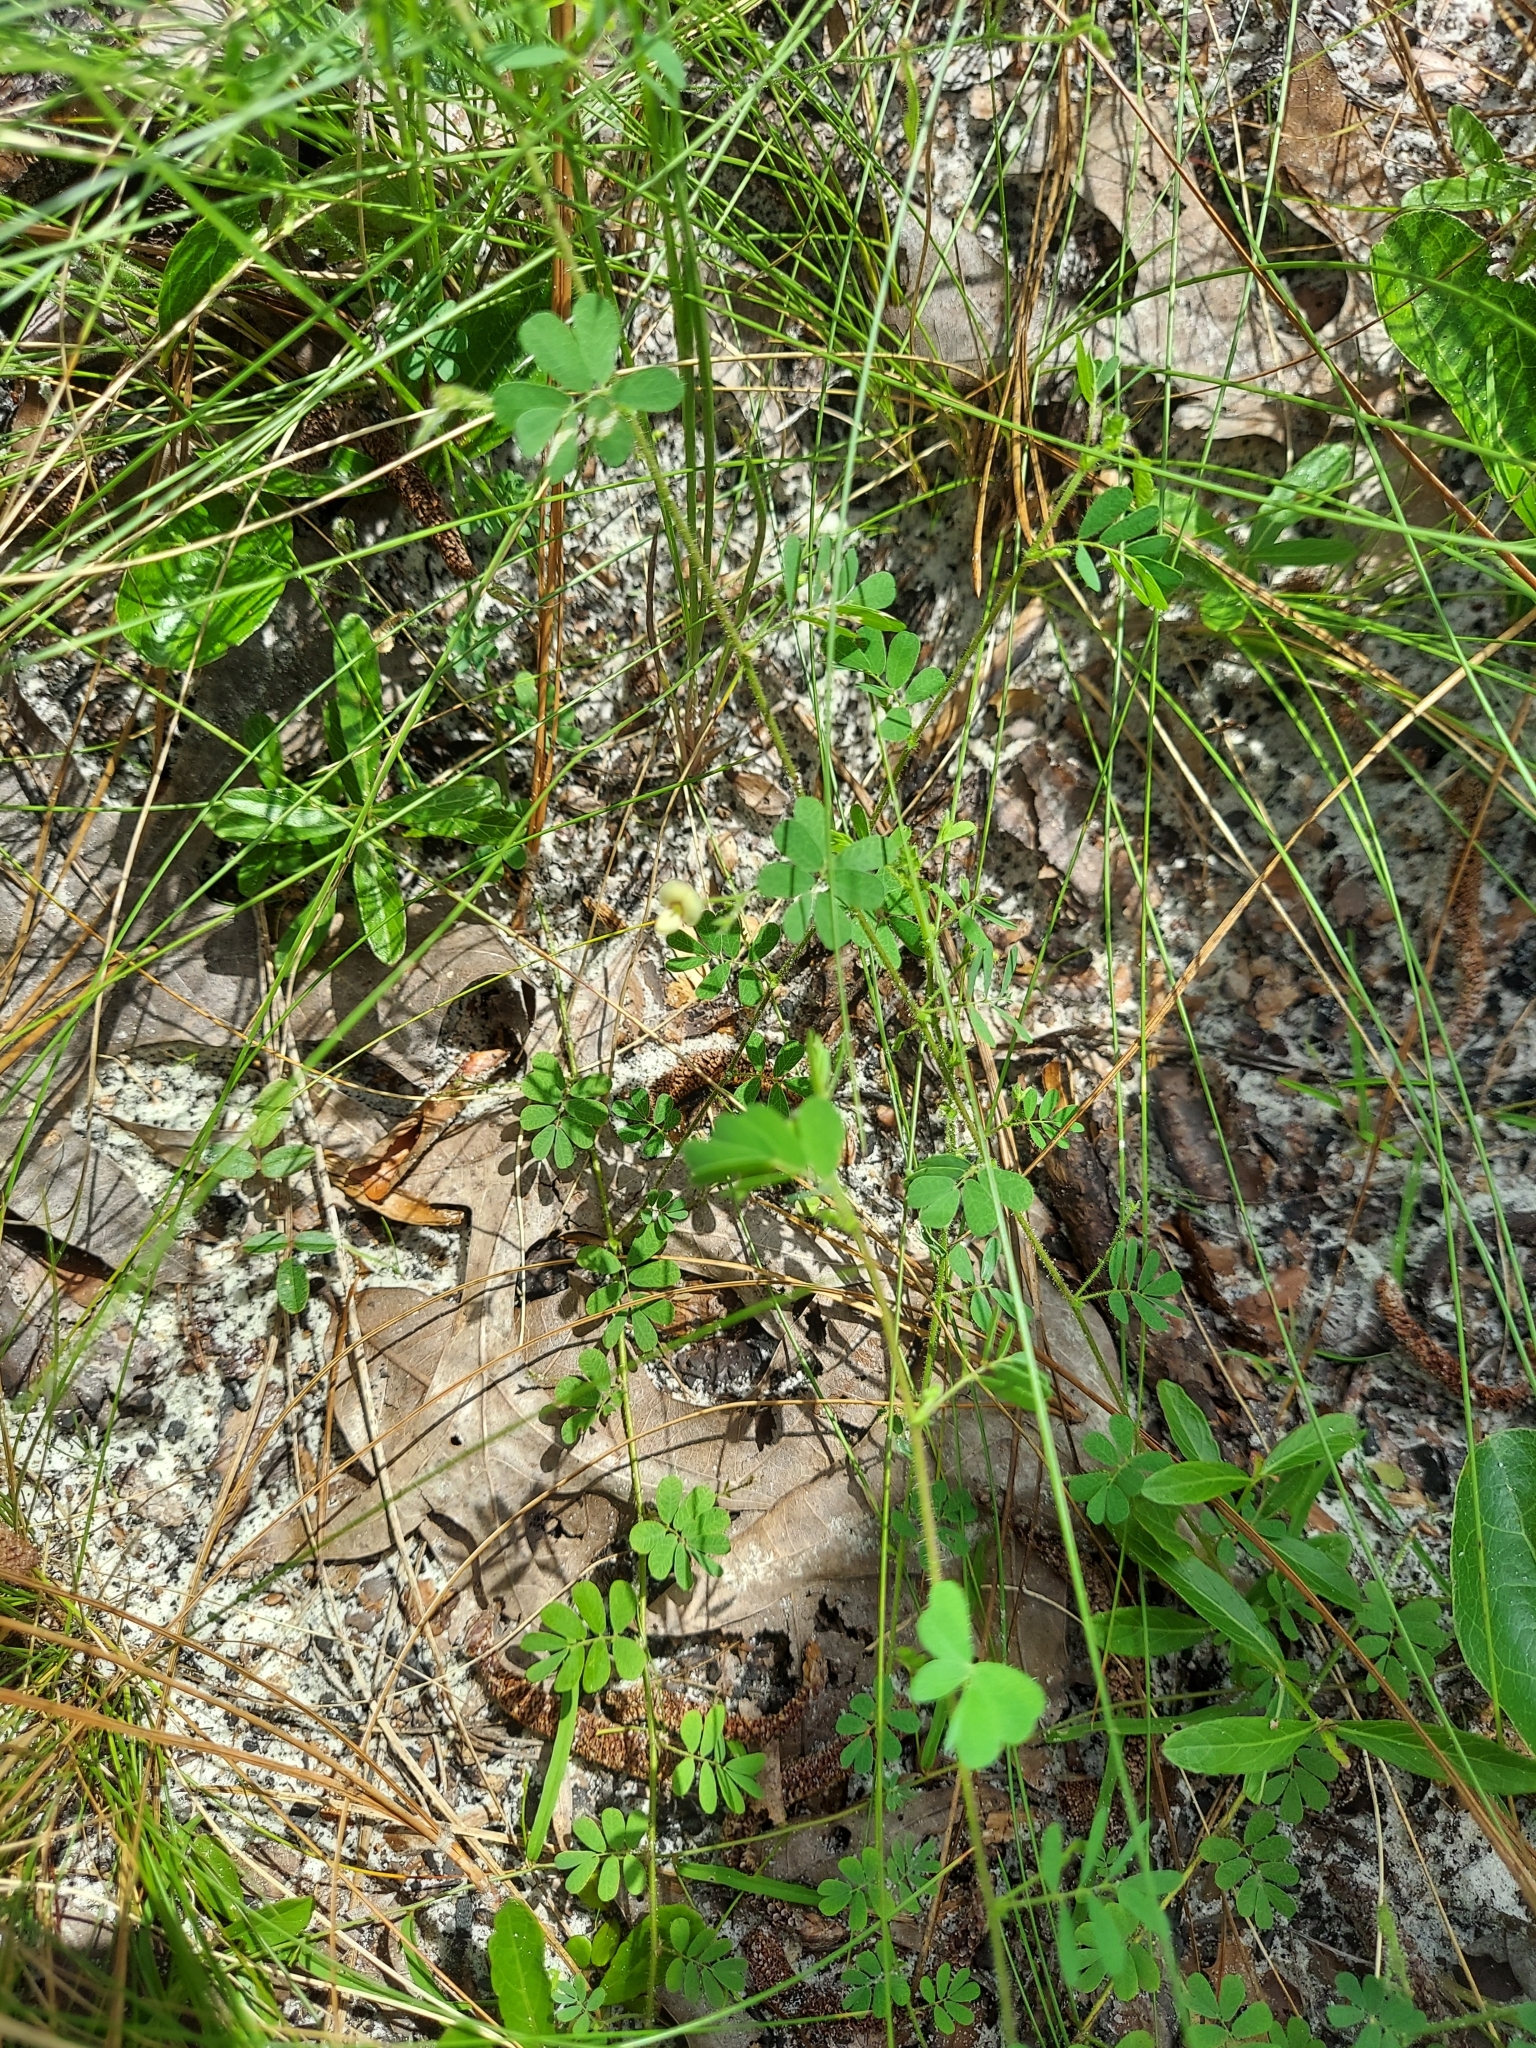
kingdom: Plantae
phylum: Tracheophyta
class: Magnoliopsida
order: Fabales
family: Fabaceae
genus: Ctenodon
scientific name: Ctenodon viscidulus
